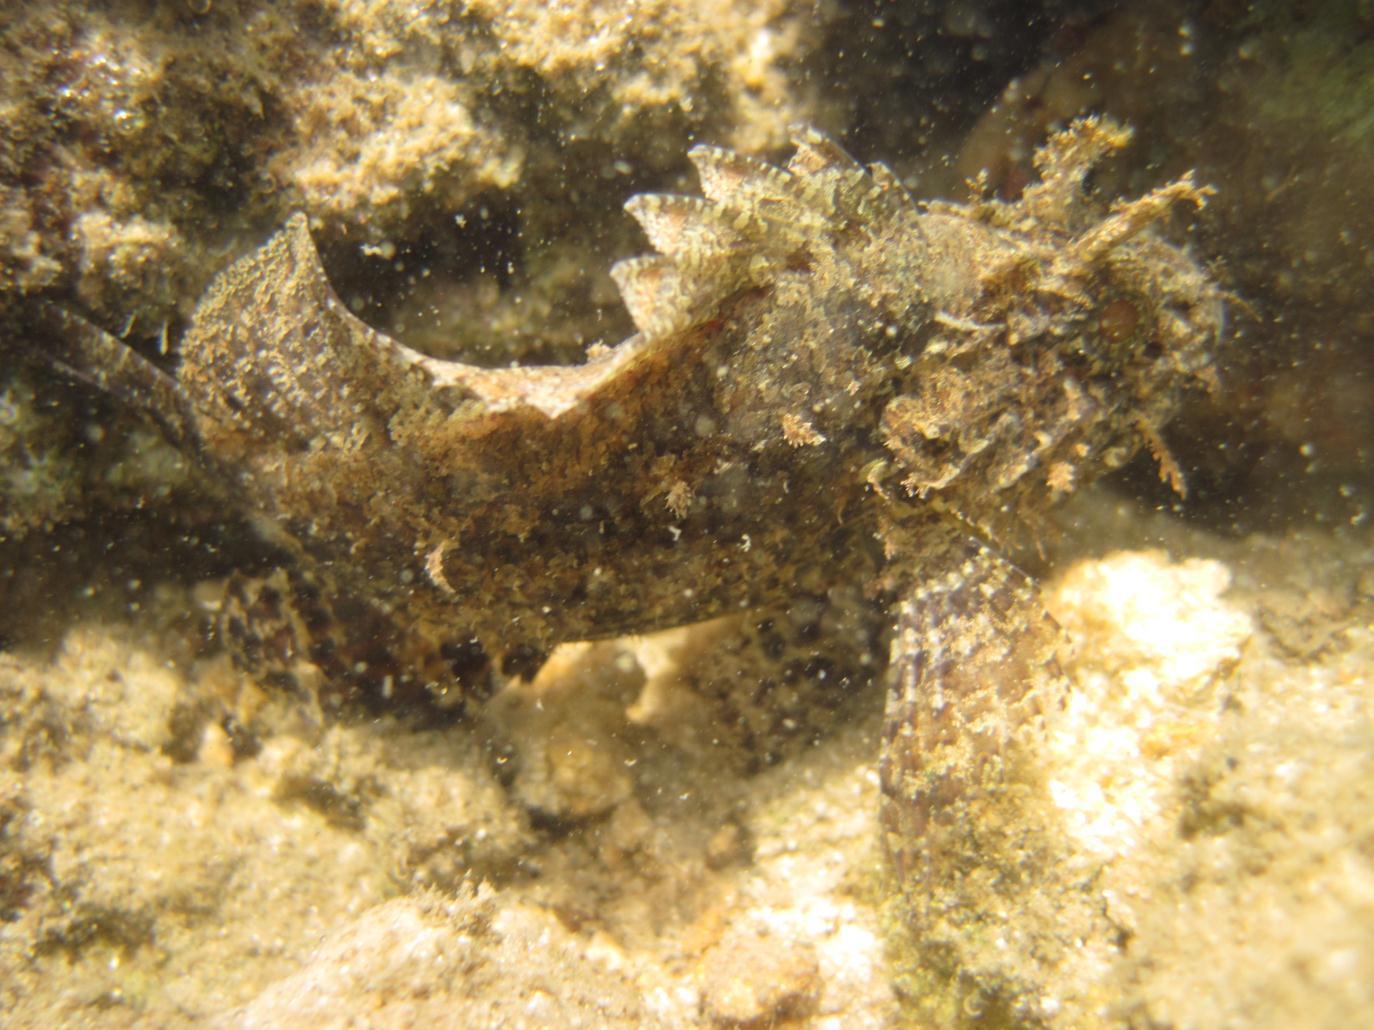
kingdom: Animalia
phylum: Chordata
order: Scorpaeniformes
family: Scorpaenidae
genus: Parascorpaena
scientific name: Parascorpaena mossambica
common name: Mozambique scorpionfish
